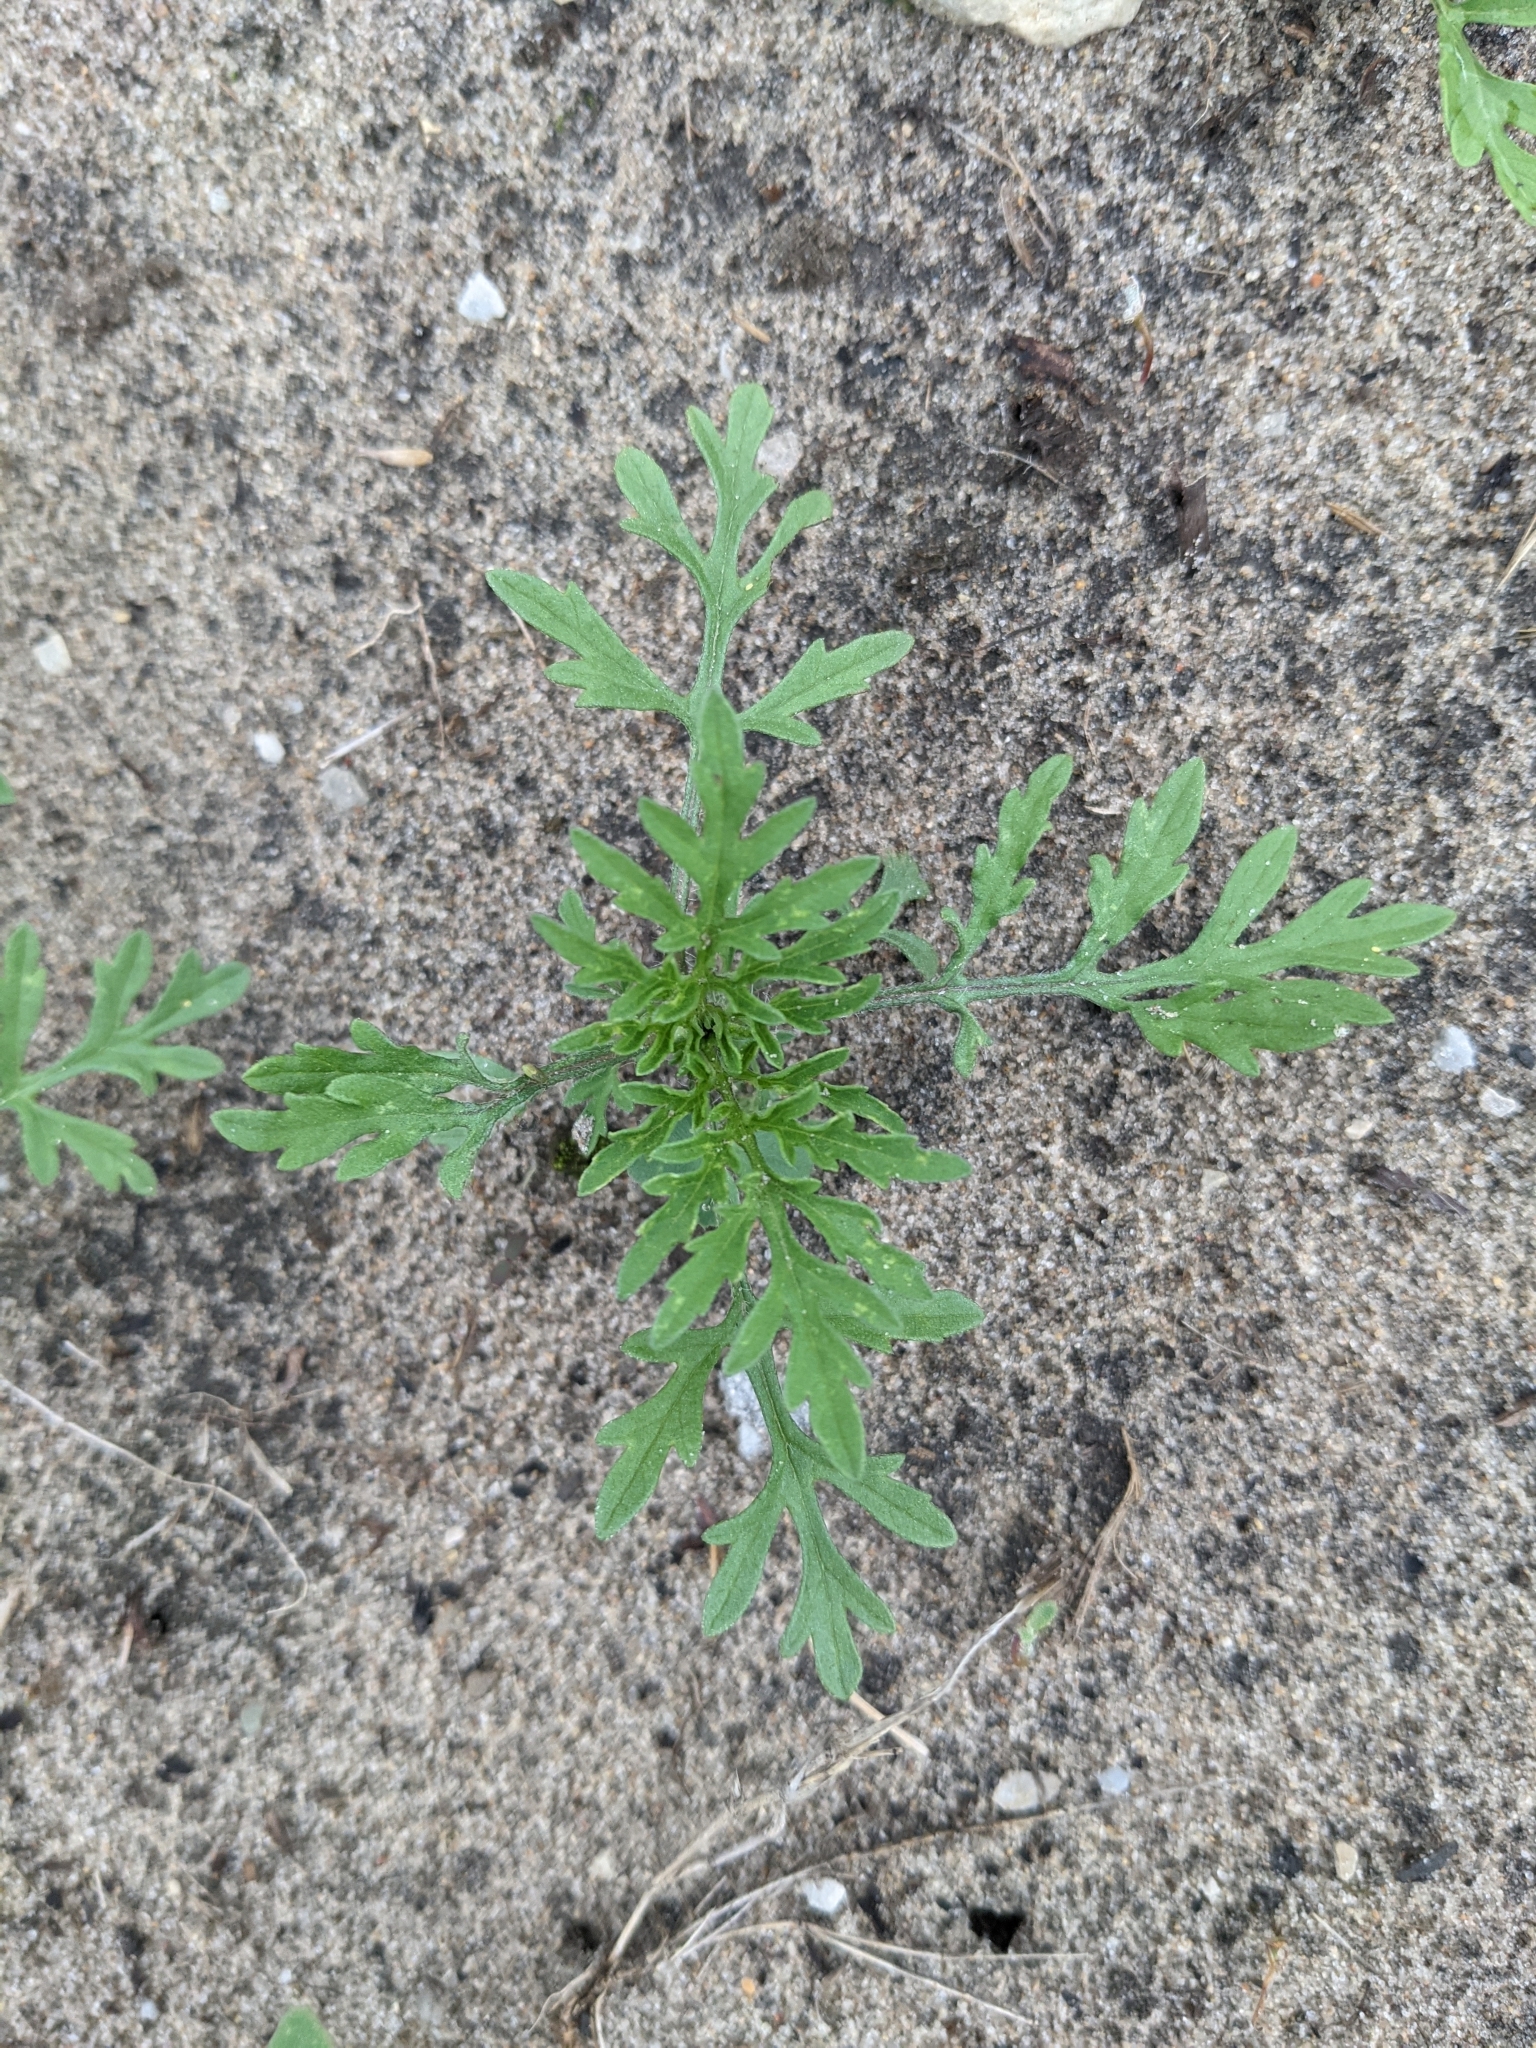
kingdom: Plantae
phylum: Tracheophyta
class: Magnoliopsida
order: Asterales
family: Asteraceae
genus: Ambrosia
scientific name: Ambrosia artemisiifolia
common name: Annual ragweed
